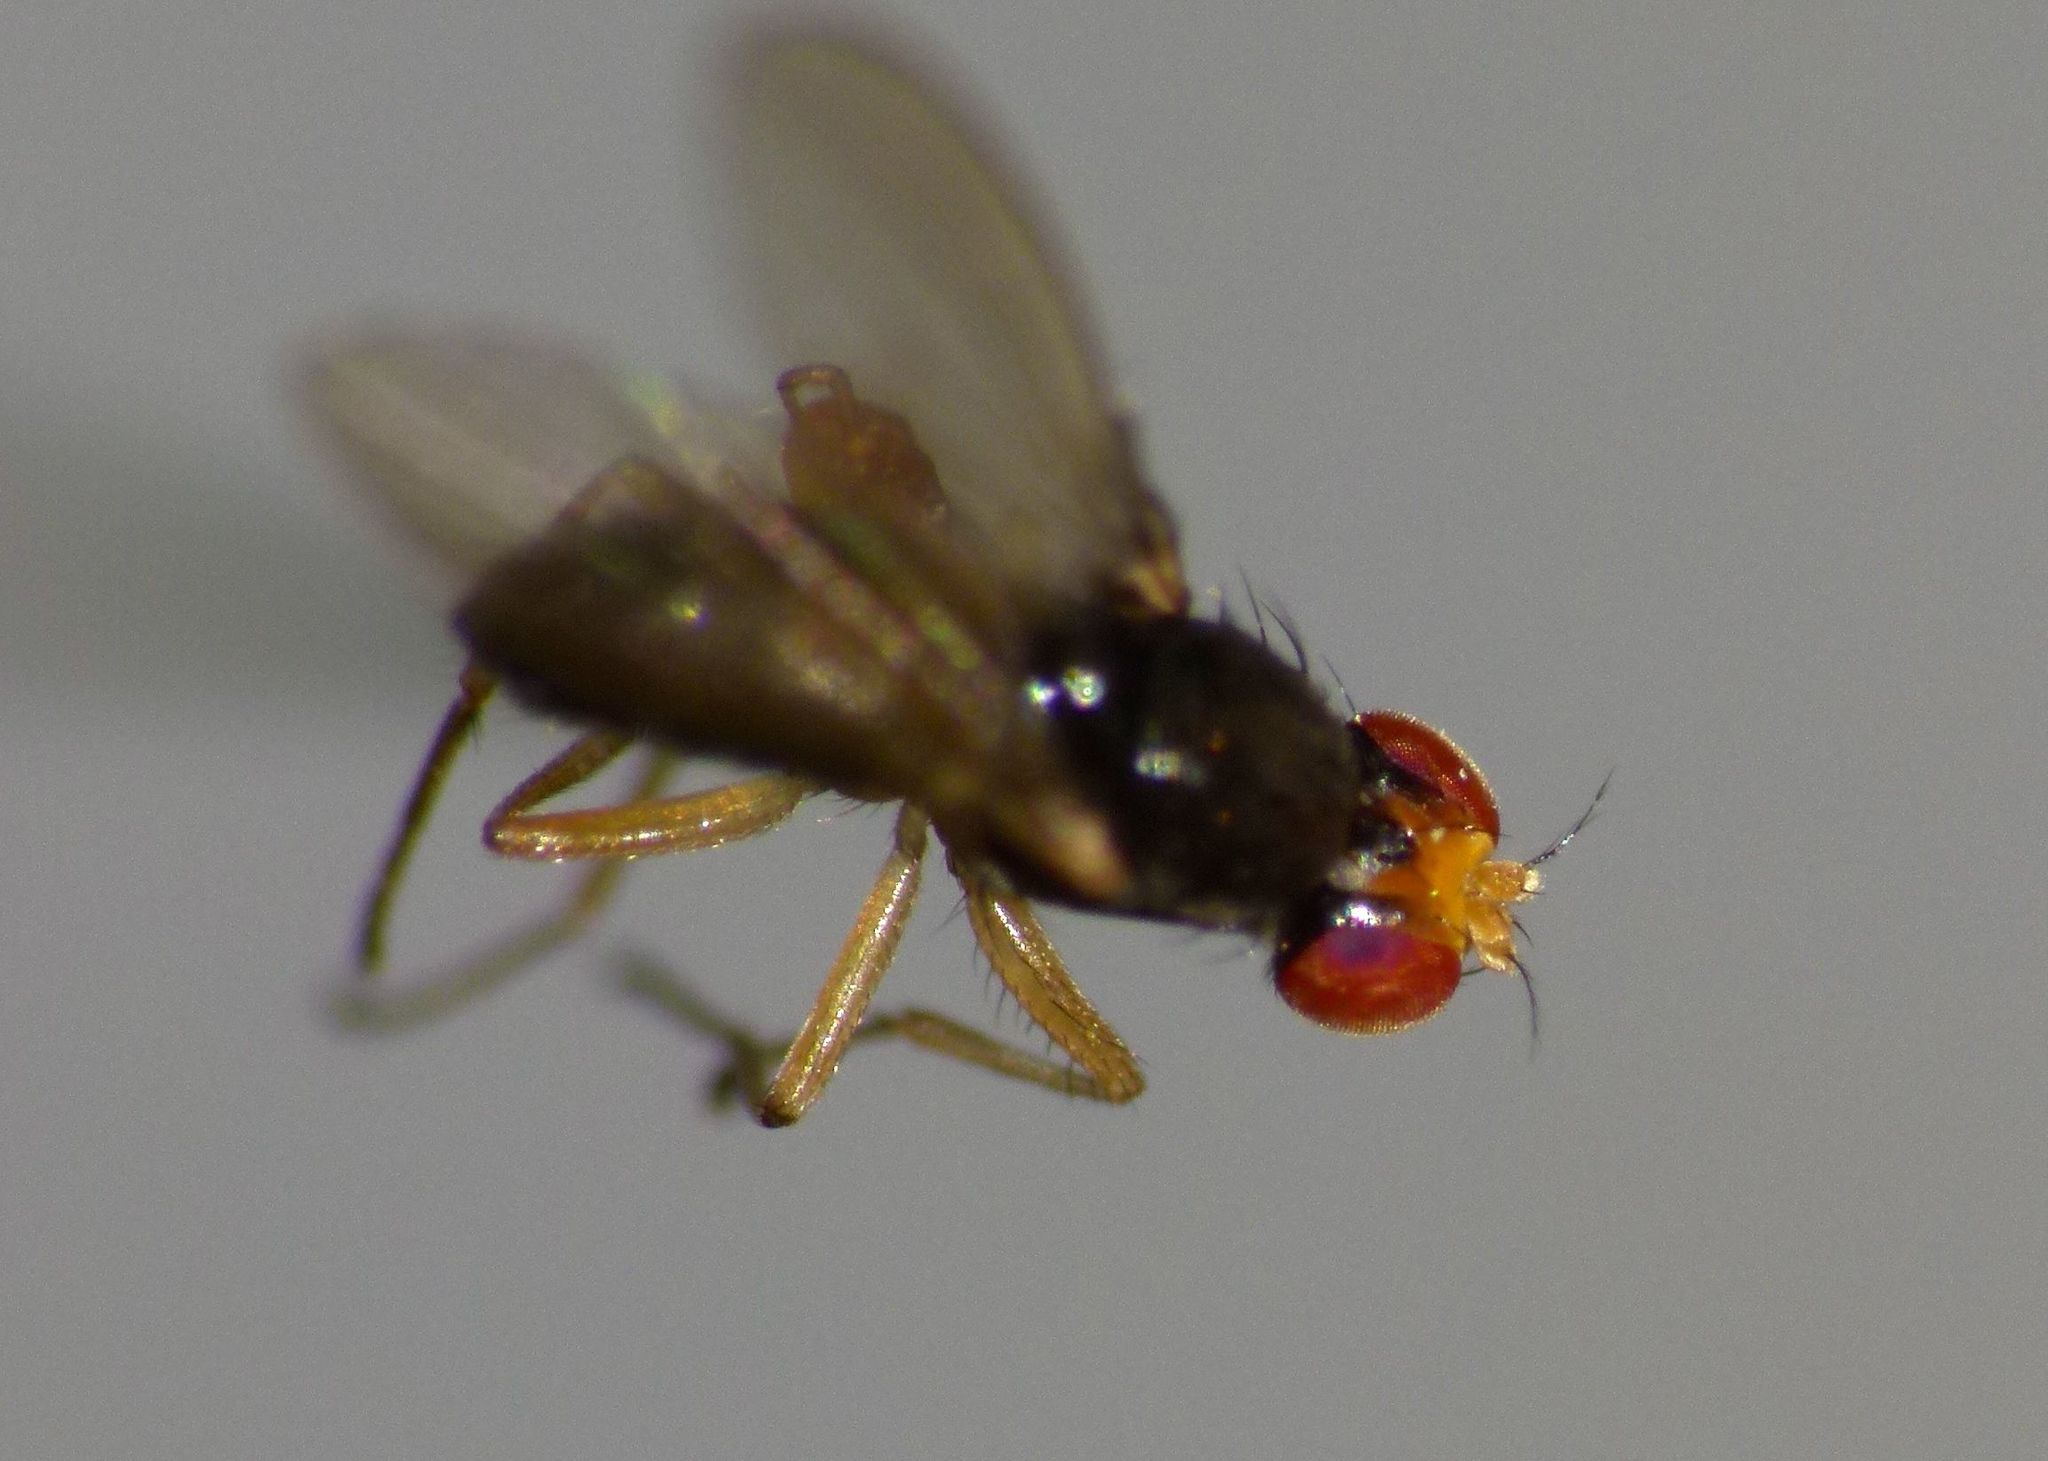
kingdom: Animalia
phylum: Arthropoda
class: Insecta
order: Diptera
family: Drosophilidae
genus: Scaptomyza
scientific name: Scaptomyza fuscitarsis
